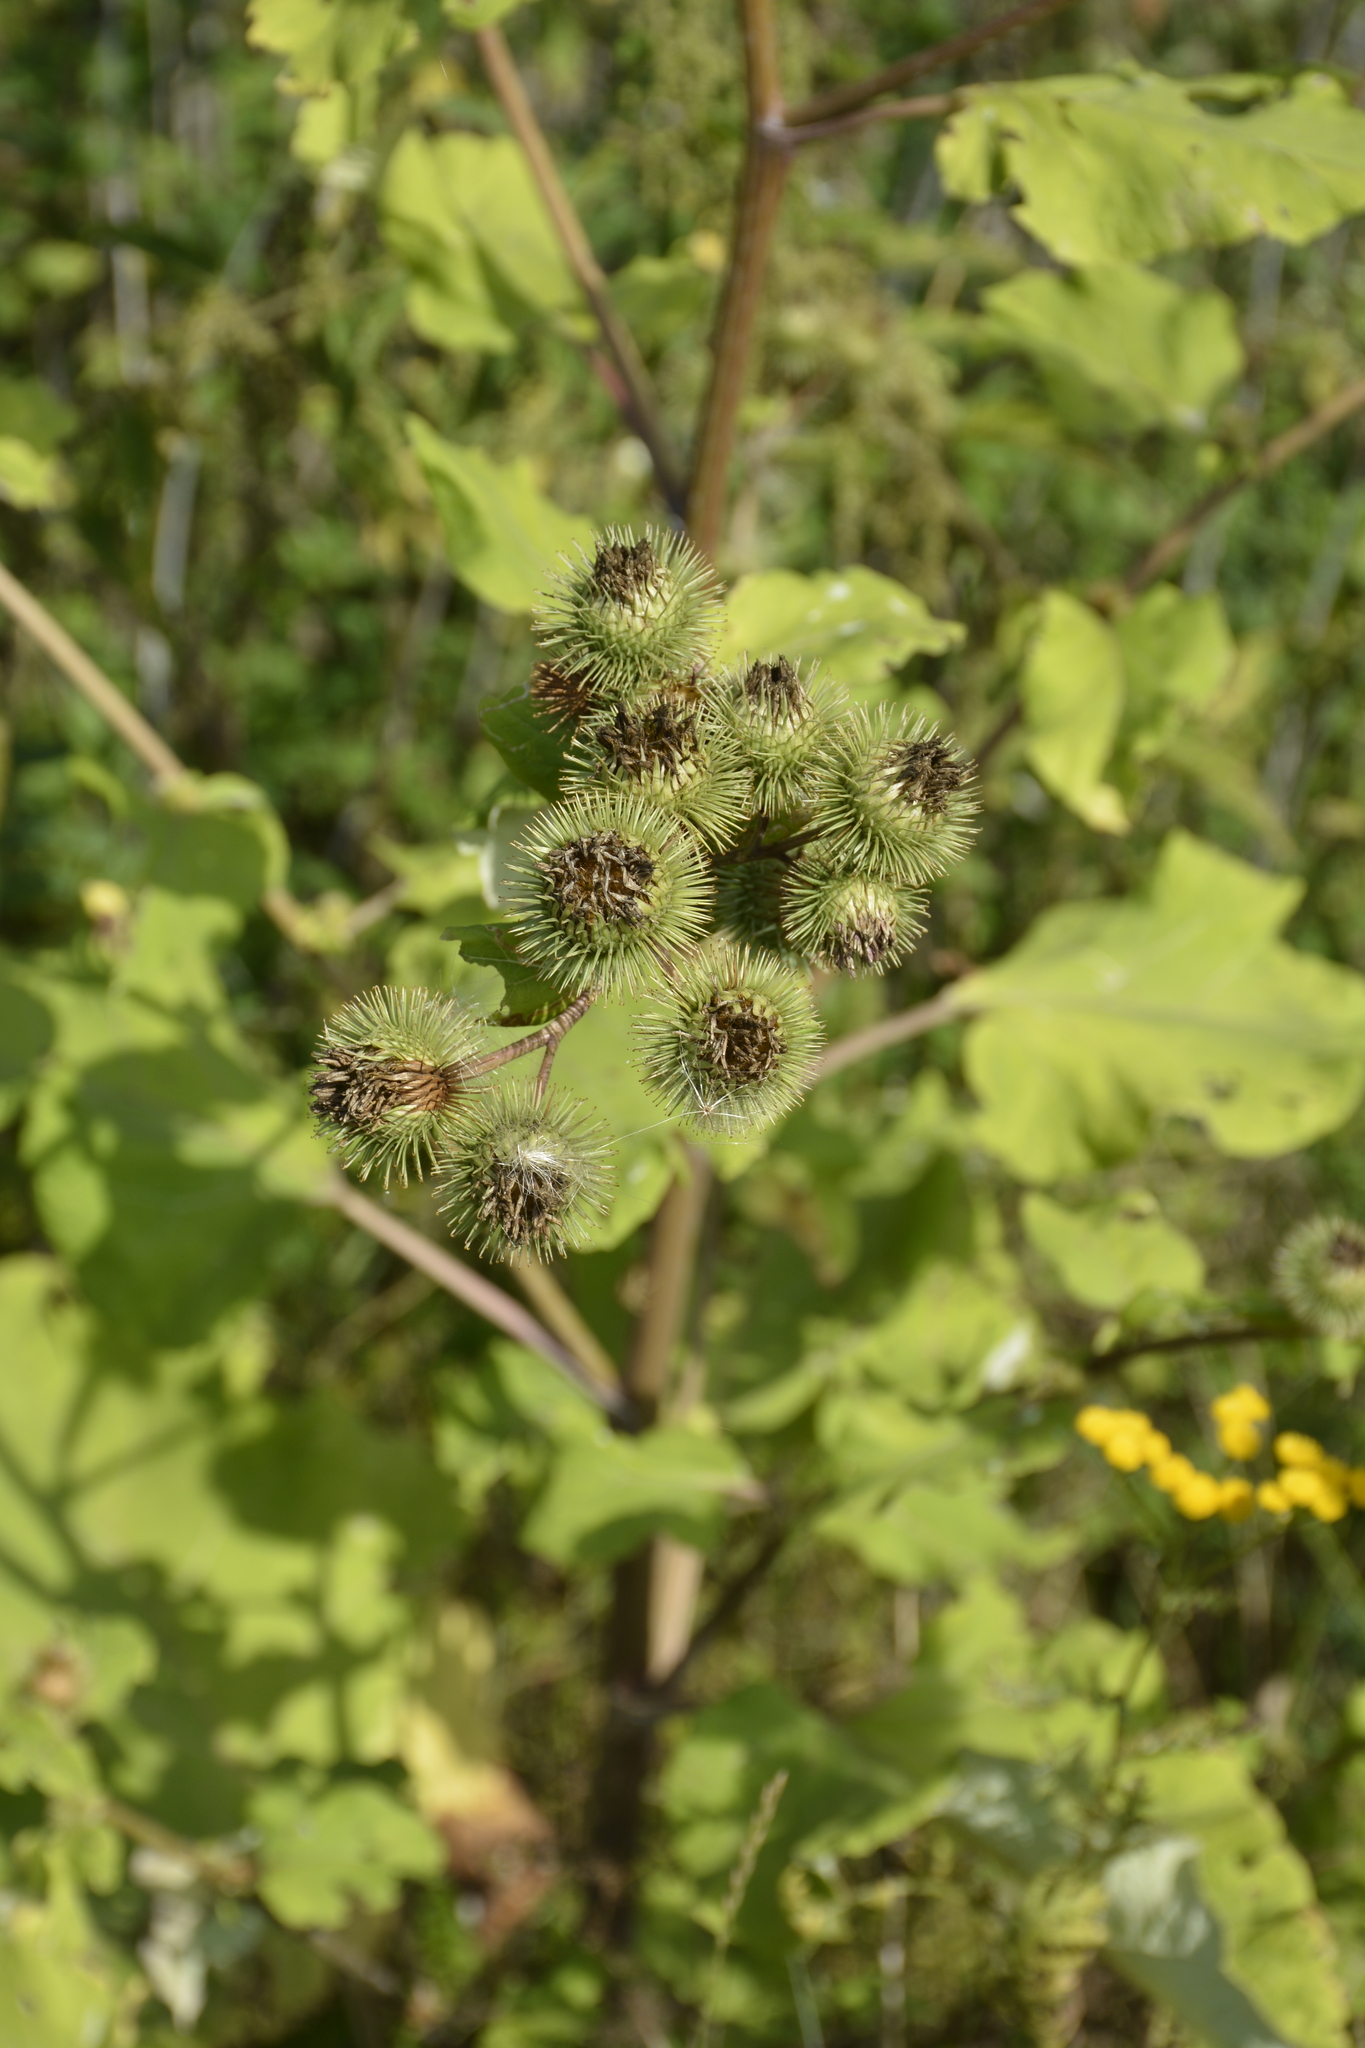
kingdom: Plantae
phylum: Tracheophyta
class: Magnoliopsida
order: Asterales
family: Asteraceae
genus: Arctium
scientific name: Arctium lappa
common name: Greater burdock
